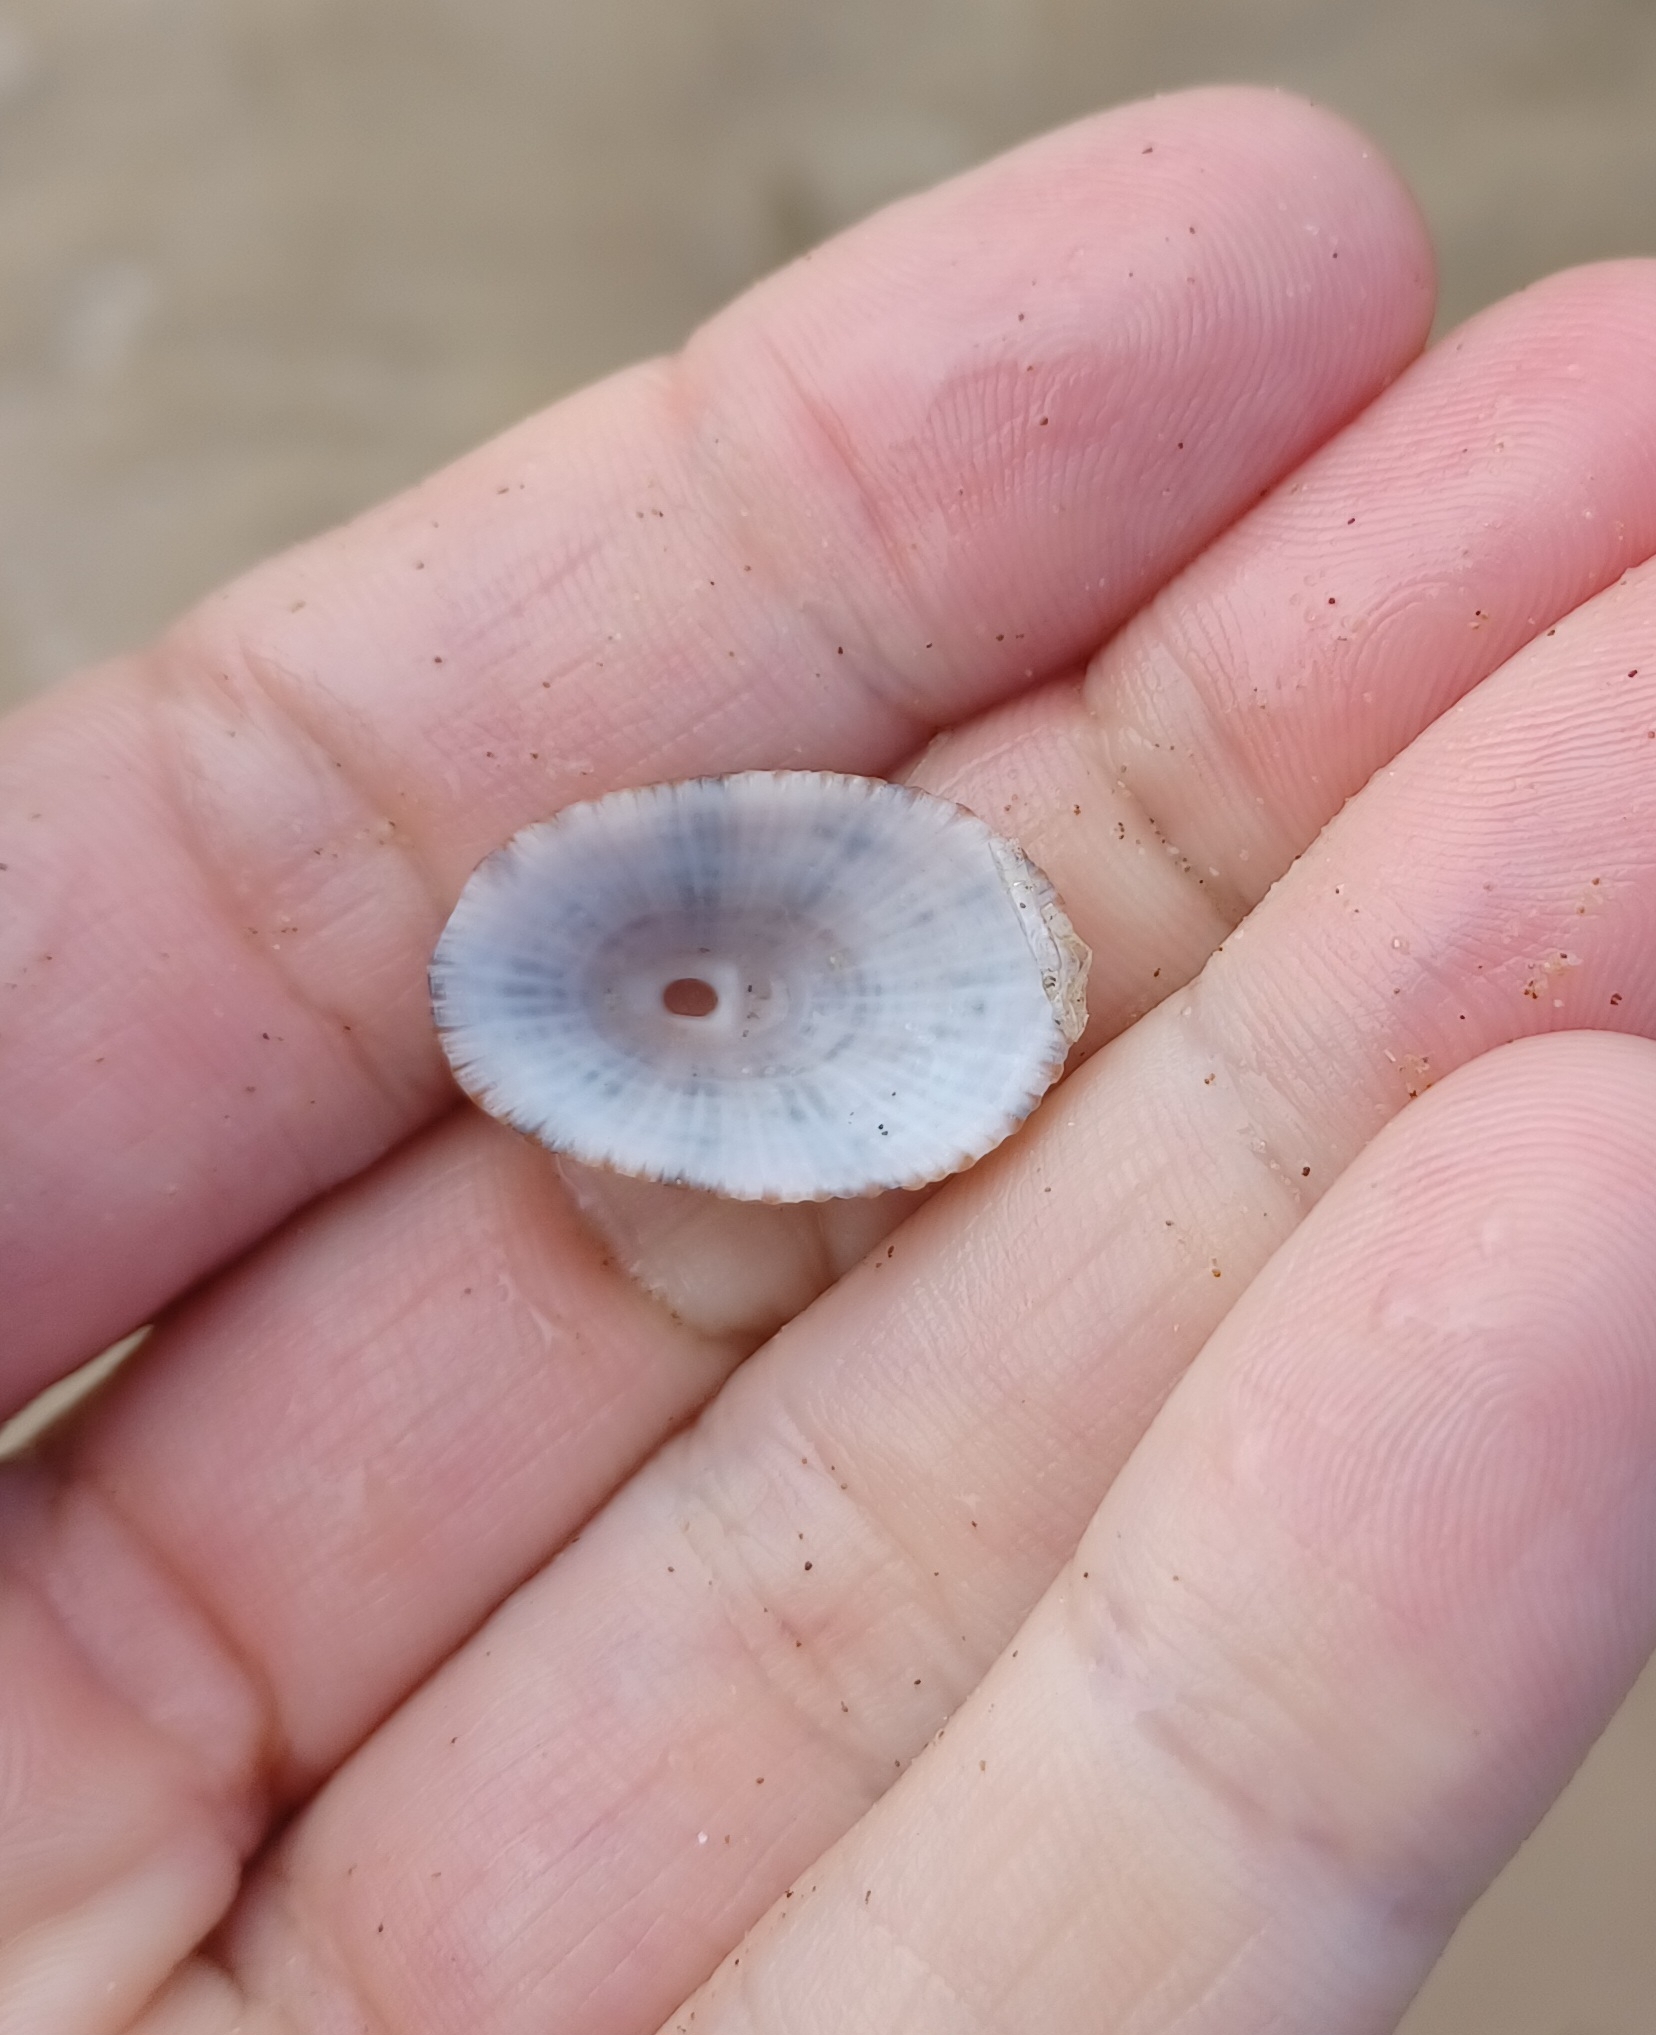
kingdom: Animalia
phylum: Mollusca
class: Gastropoda
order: Lepetellida
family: Fissurellidae
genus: Diodora
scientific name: Diodora lineata
